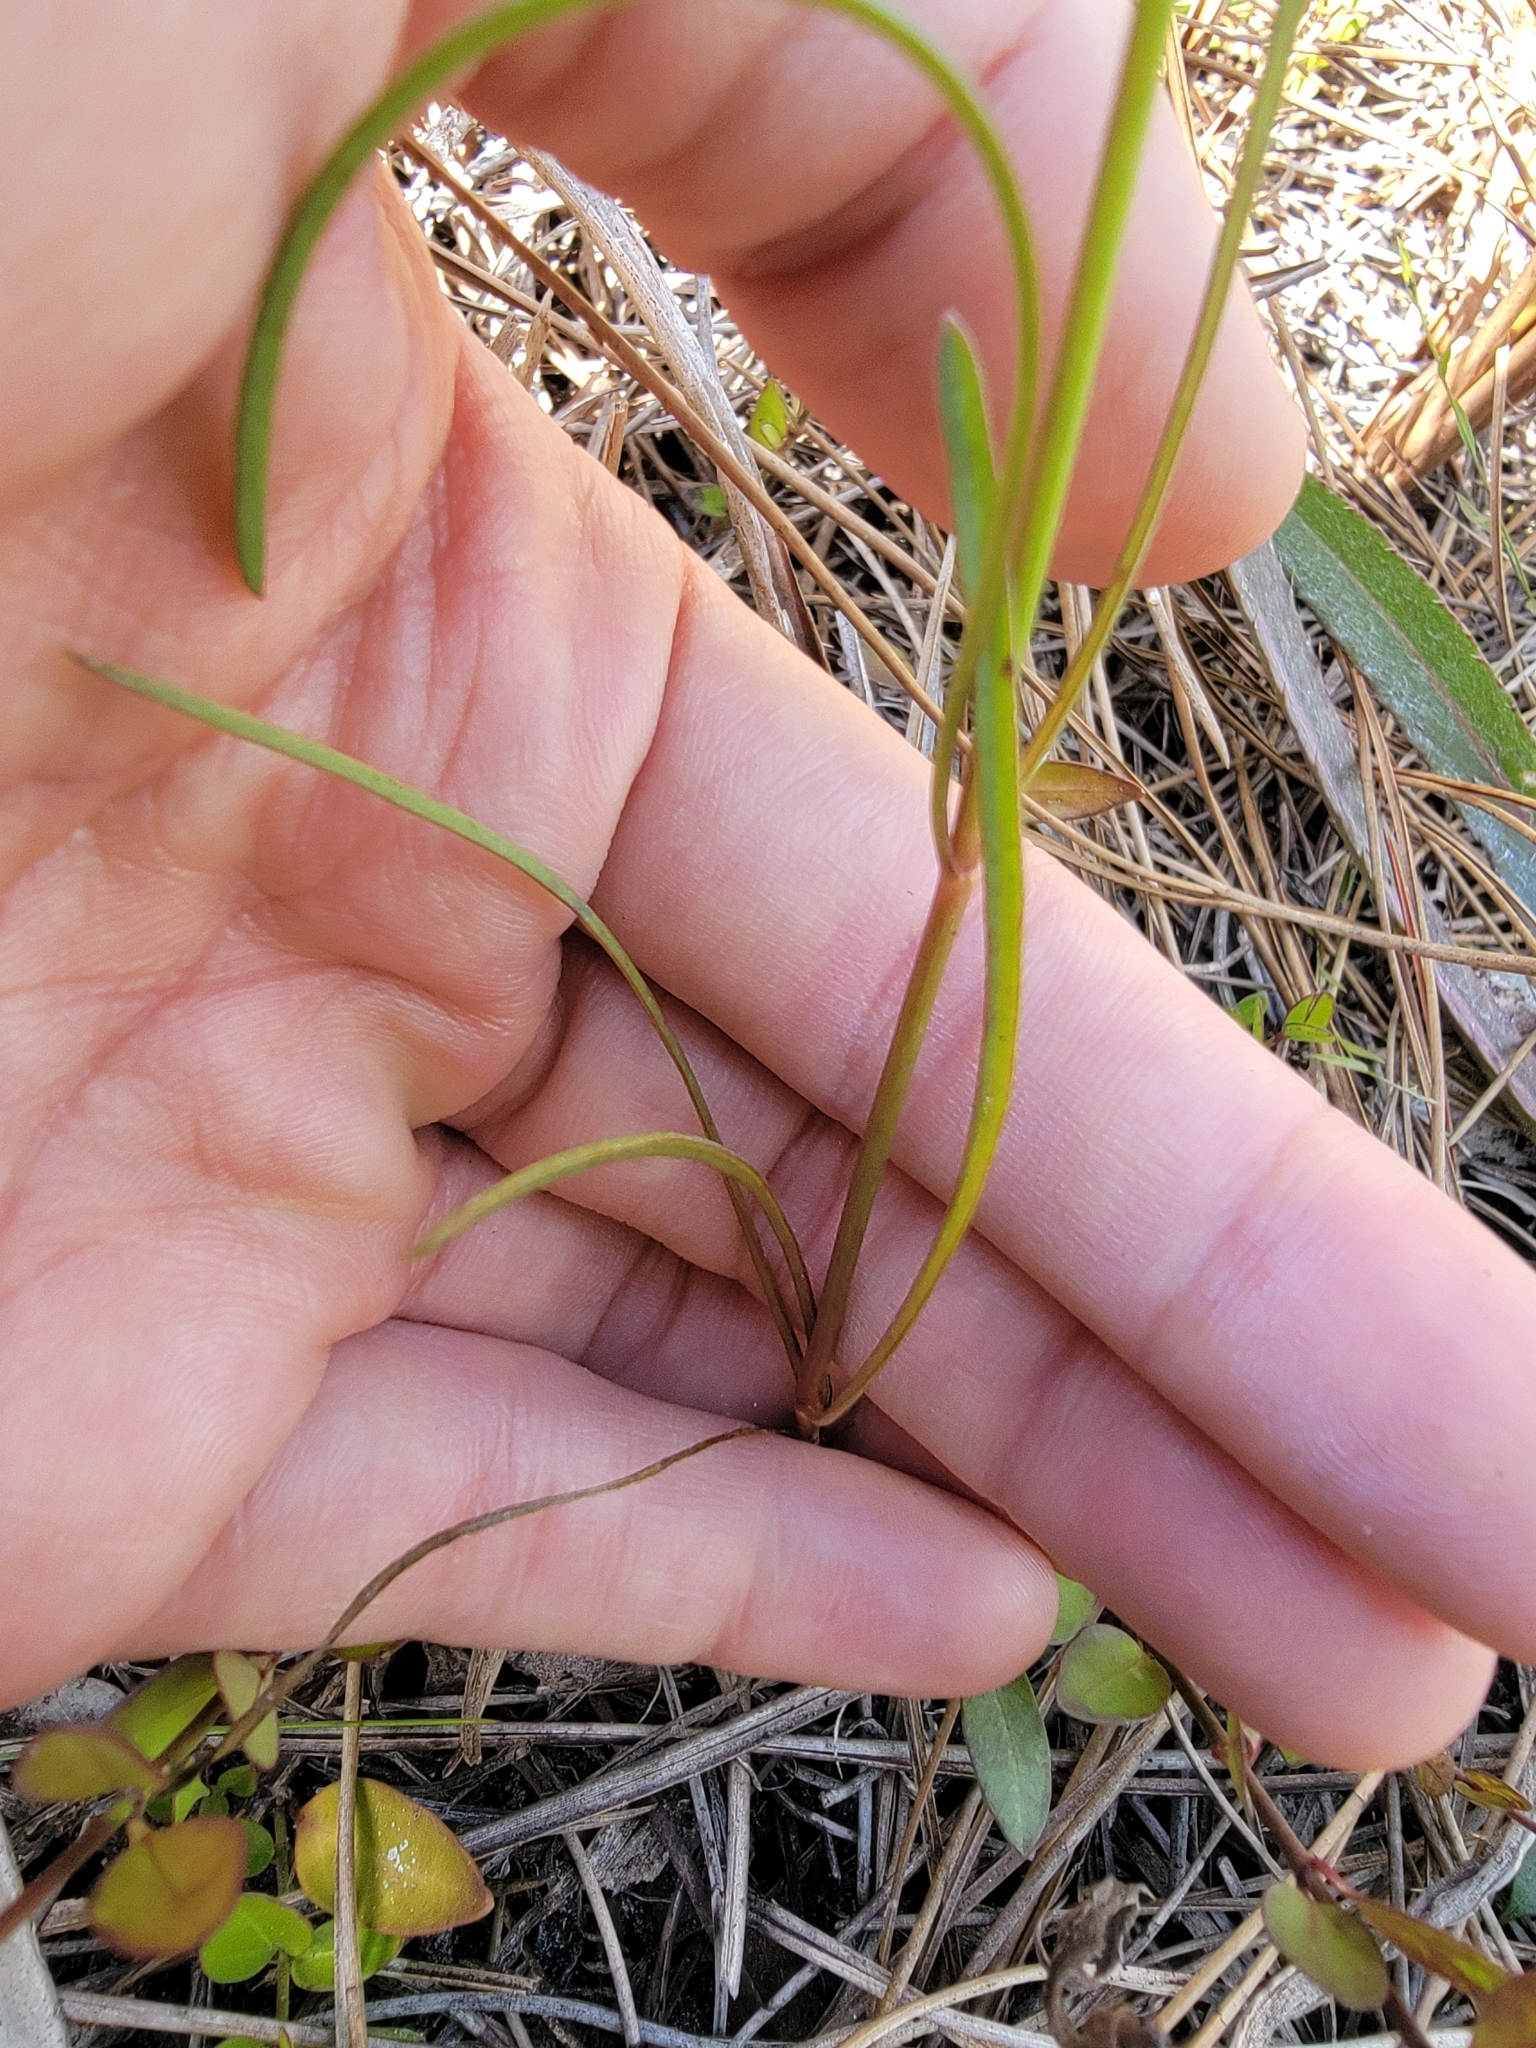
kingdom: Plantae
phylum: Tracheophyta
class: Magnoliopsida
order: Asterales
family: Asteraceae
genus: Coreopsis
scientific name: Coreopsis leavenworthii
